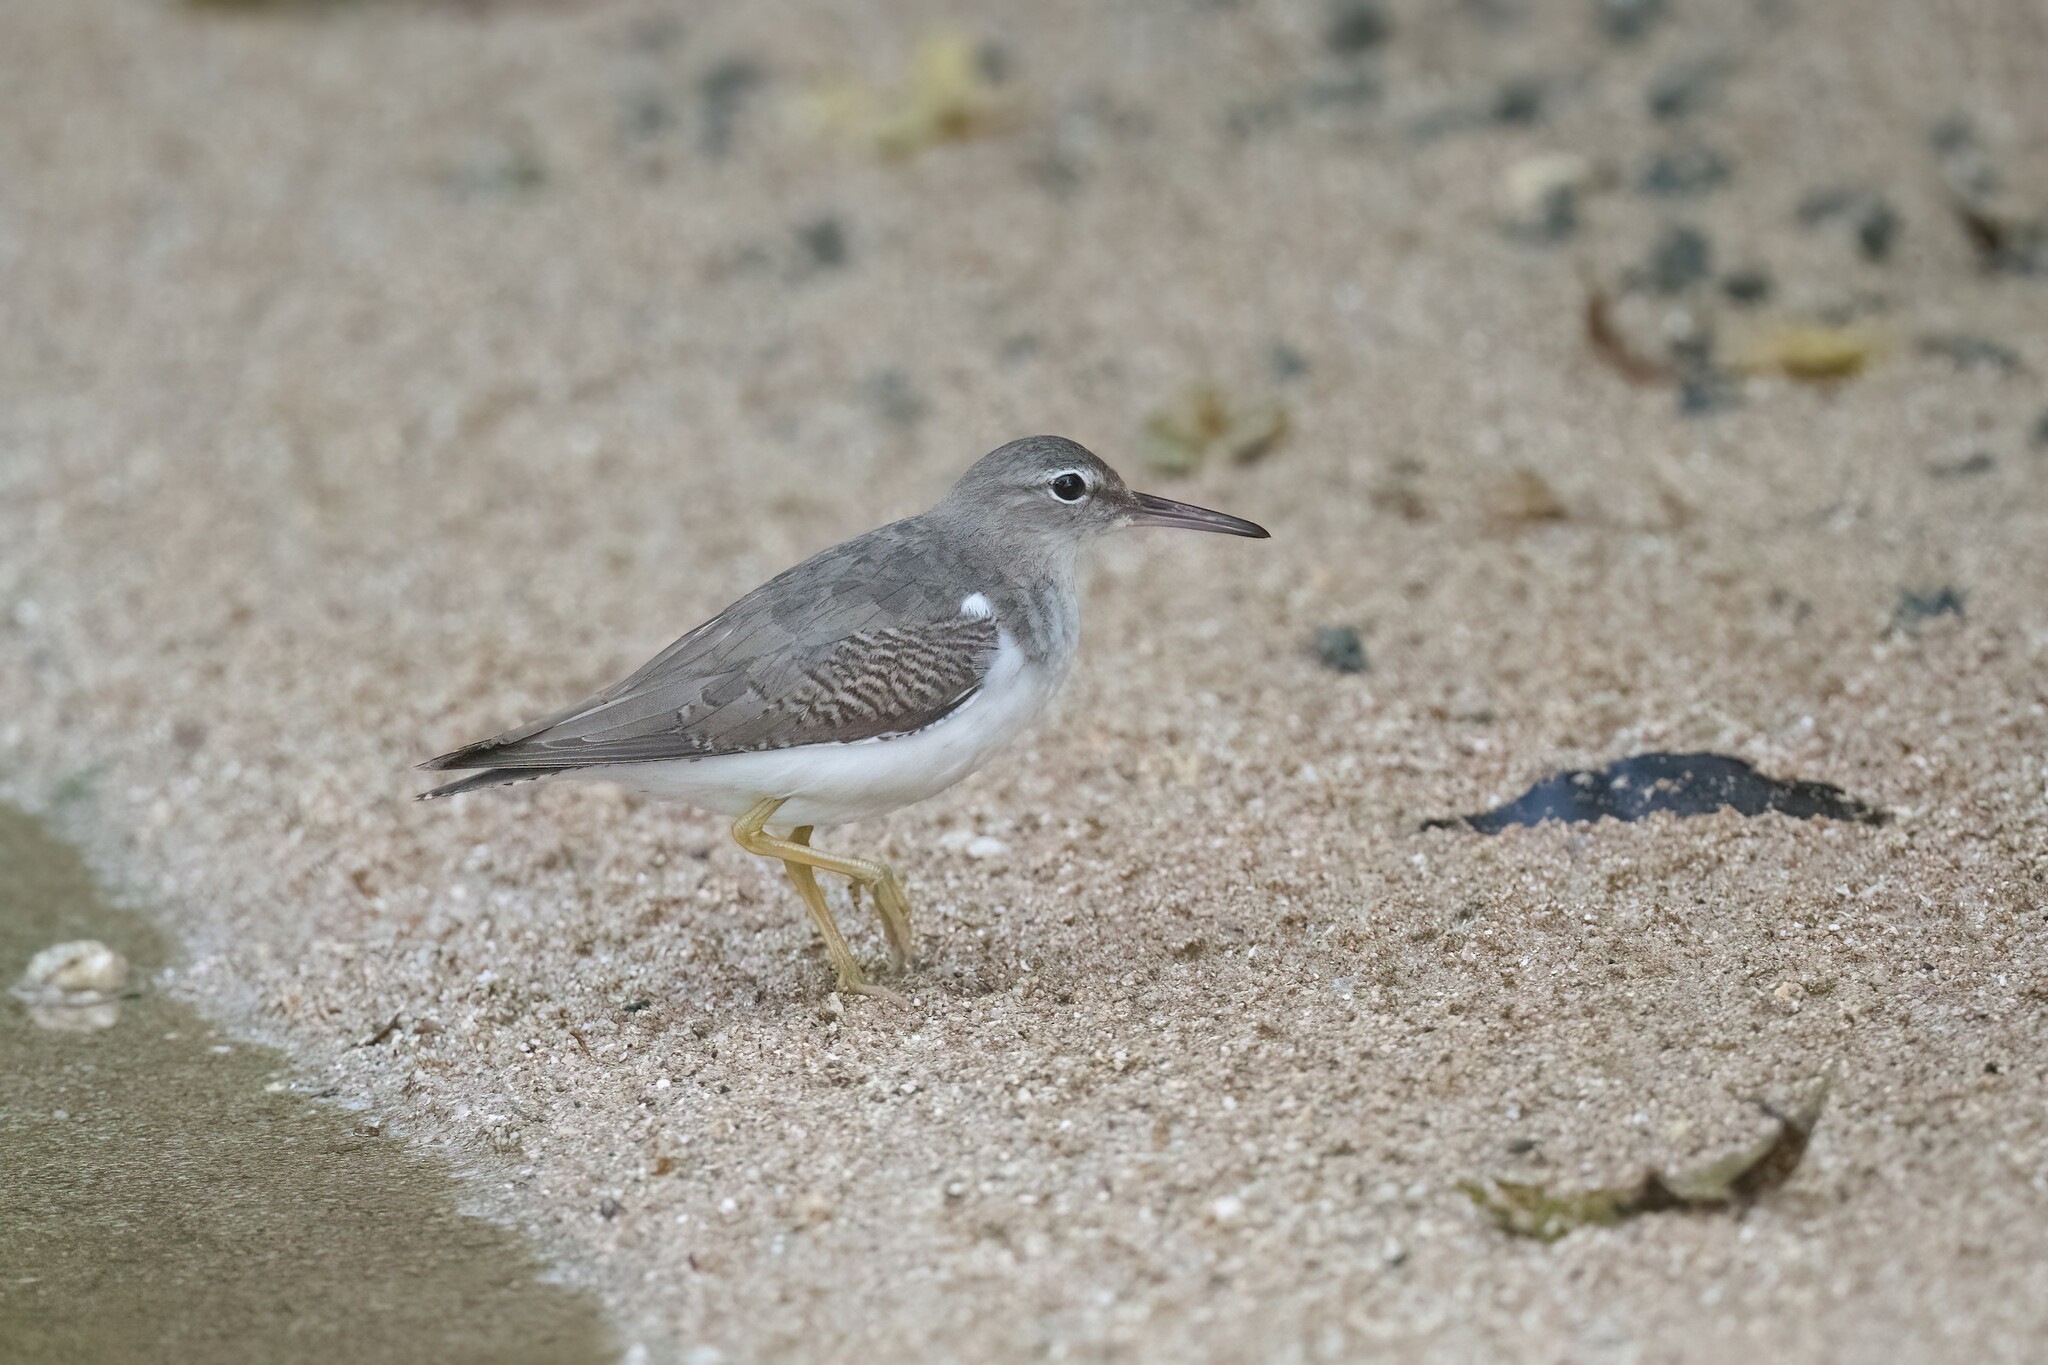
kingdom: Animalia
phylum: Chordata
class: Aves
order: Charadriiformes
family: Scolopacidae
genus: Actitis
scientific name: Actitis macularius
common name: Spotted sandpiper
